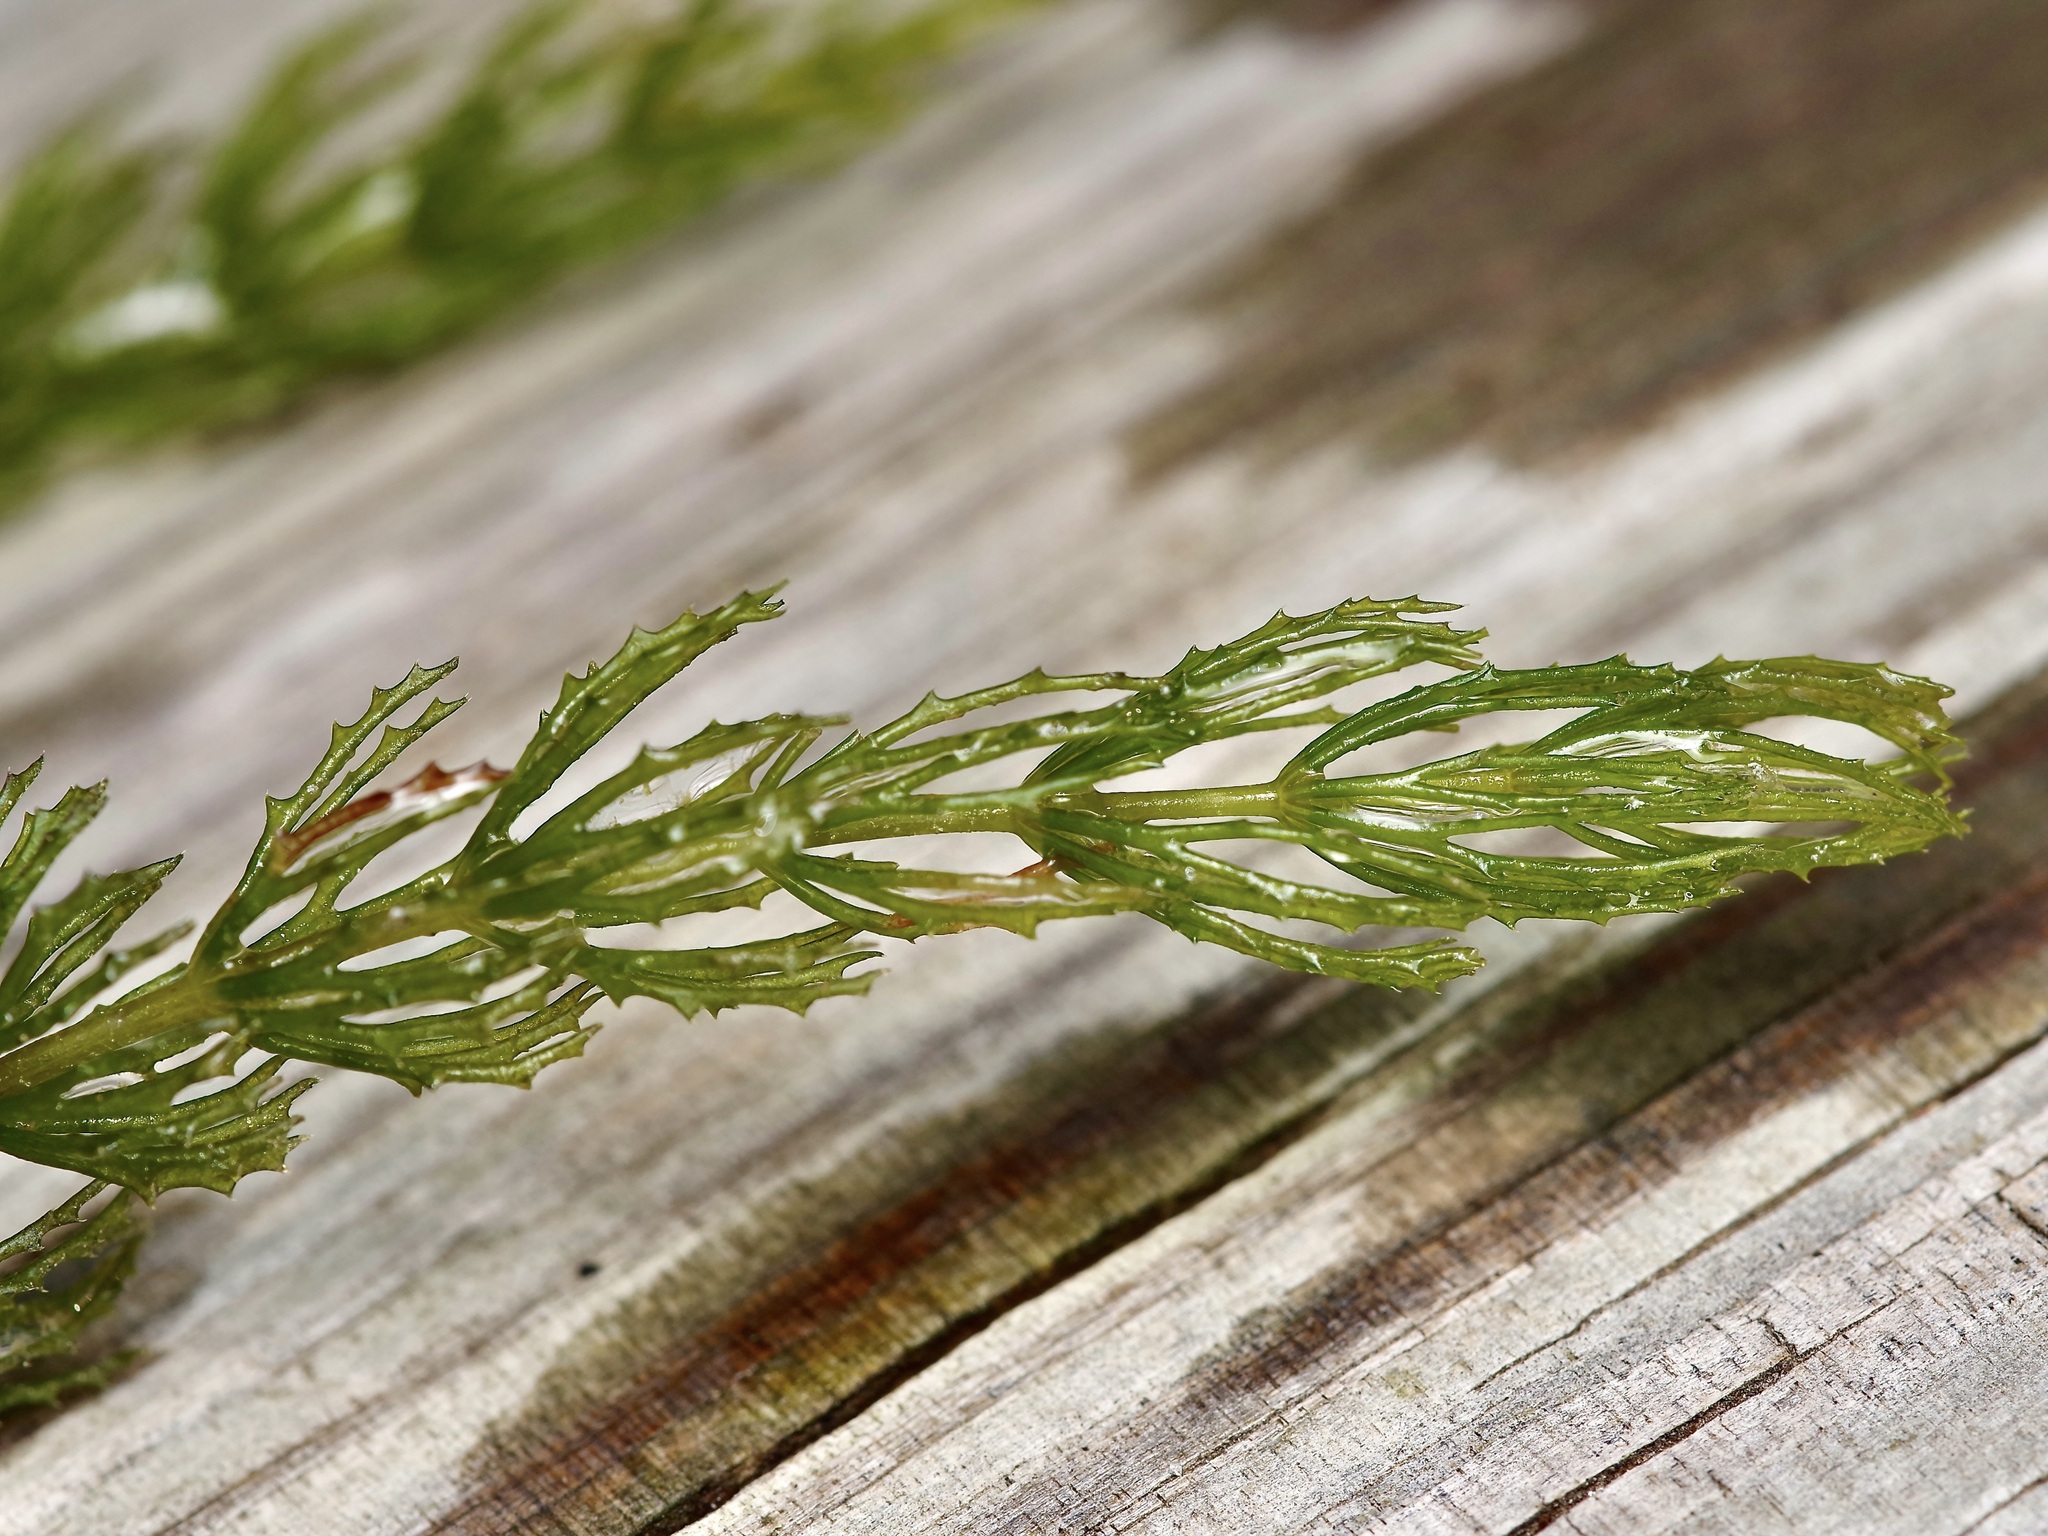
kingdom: Plantae
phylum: Tracheophyta
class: Magnoliopsida
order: Ceratophyllales
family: Ceratophyllaceae
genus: Ceratophyllum
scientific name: Ceratophyllum demersum
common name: Rigid hornwort
